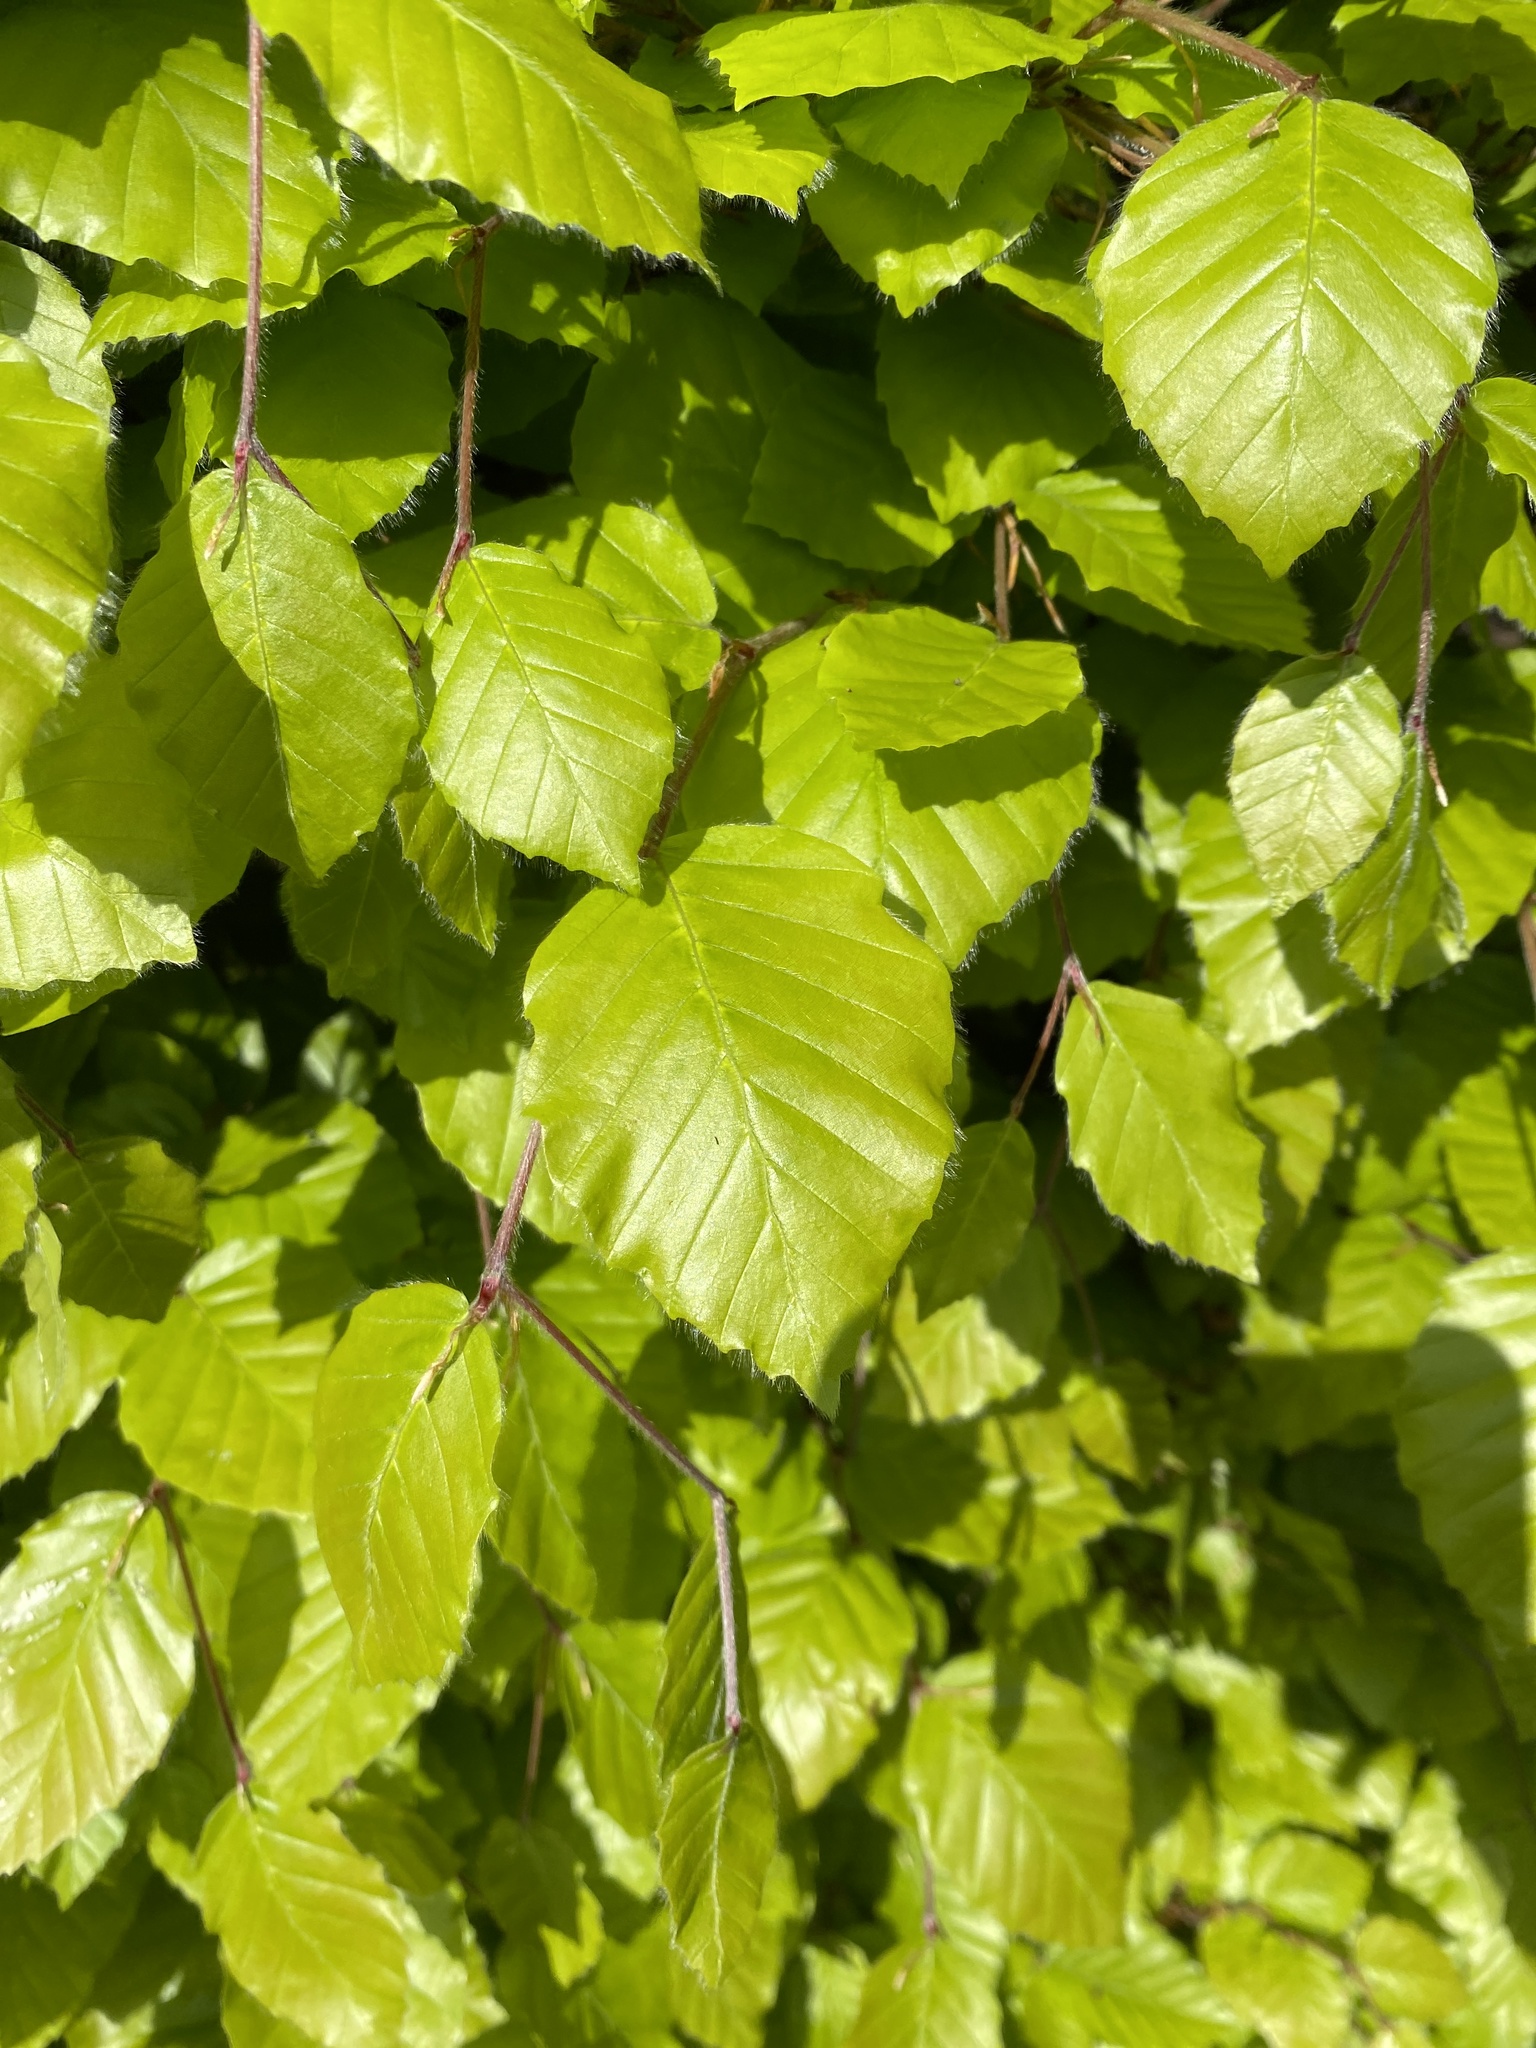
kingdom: Plantae
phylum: Tracheophyta
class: Magnoliopsida
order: Fagales
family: Fagaceae
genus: Fagus
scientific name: Fagus sylvatica
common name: Beech
